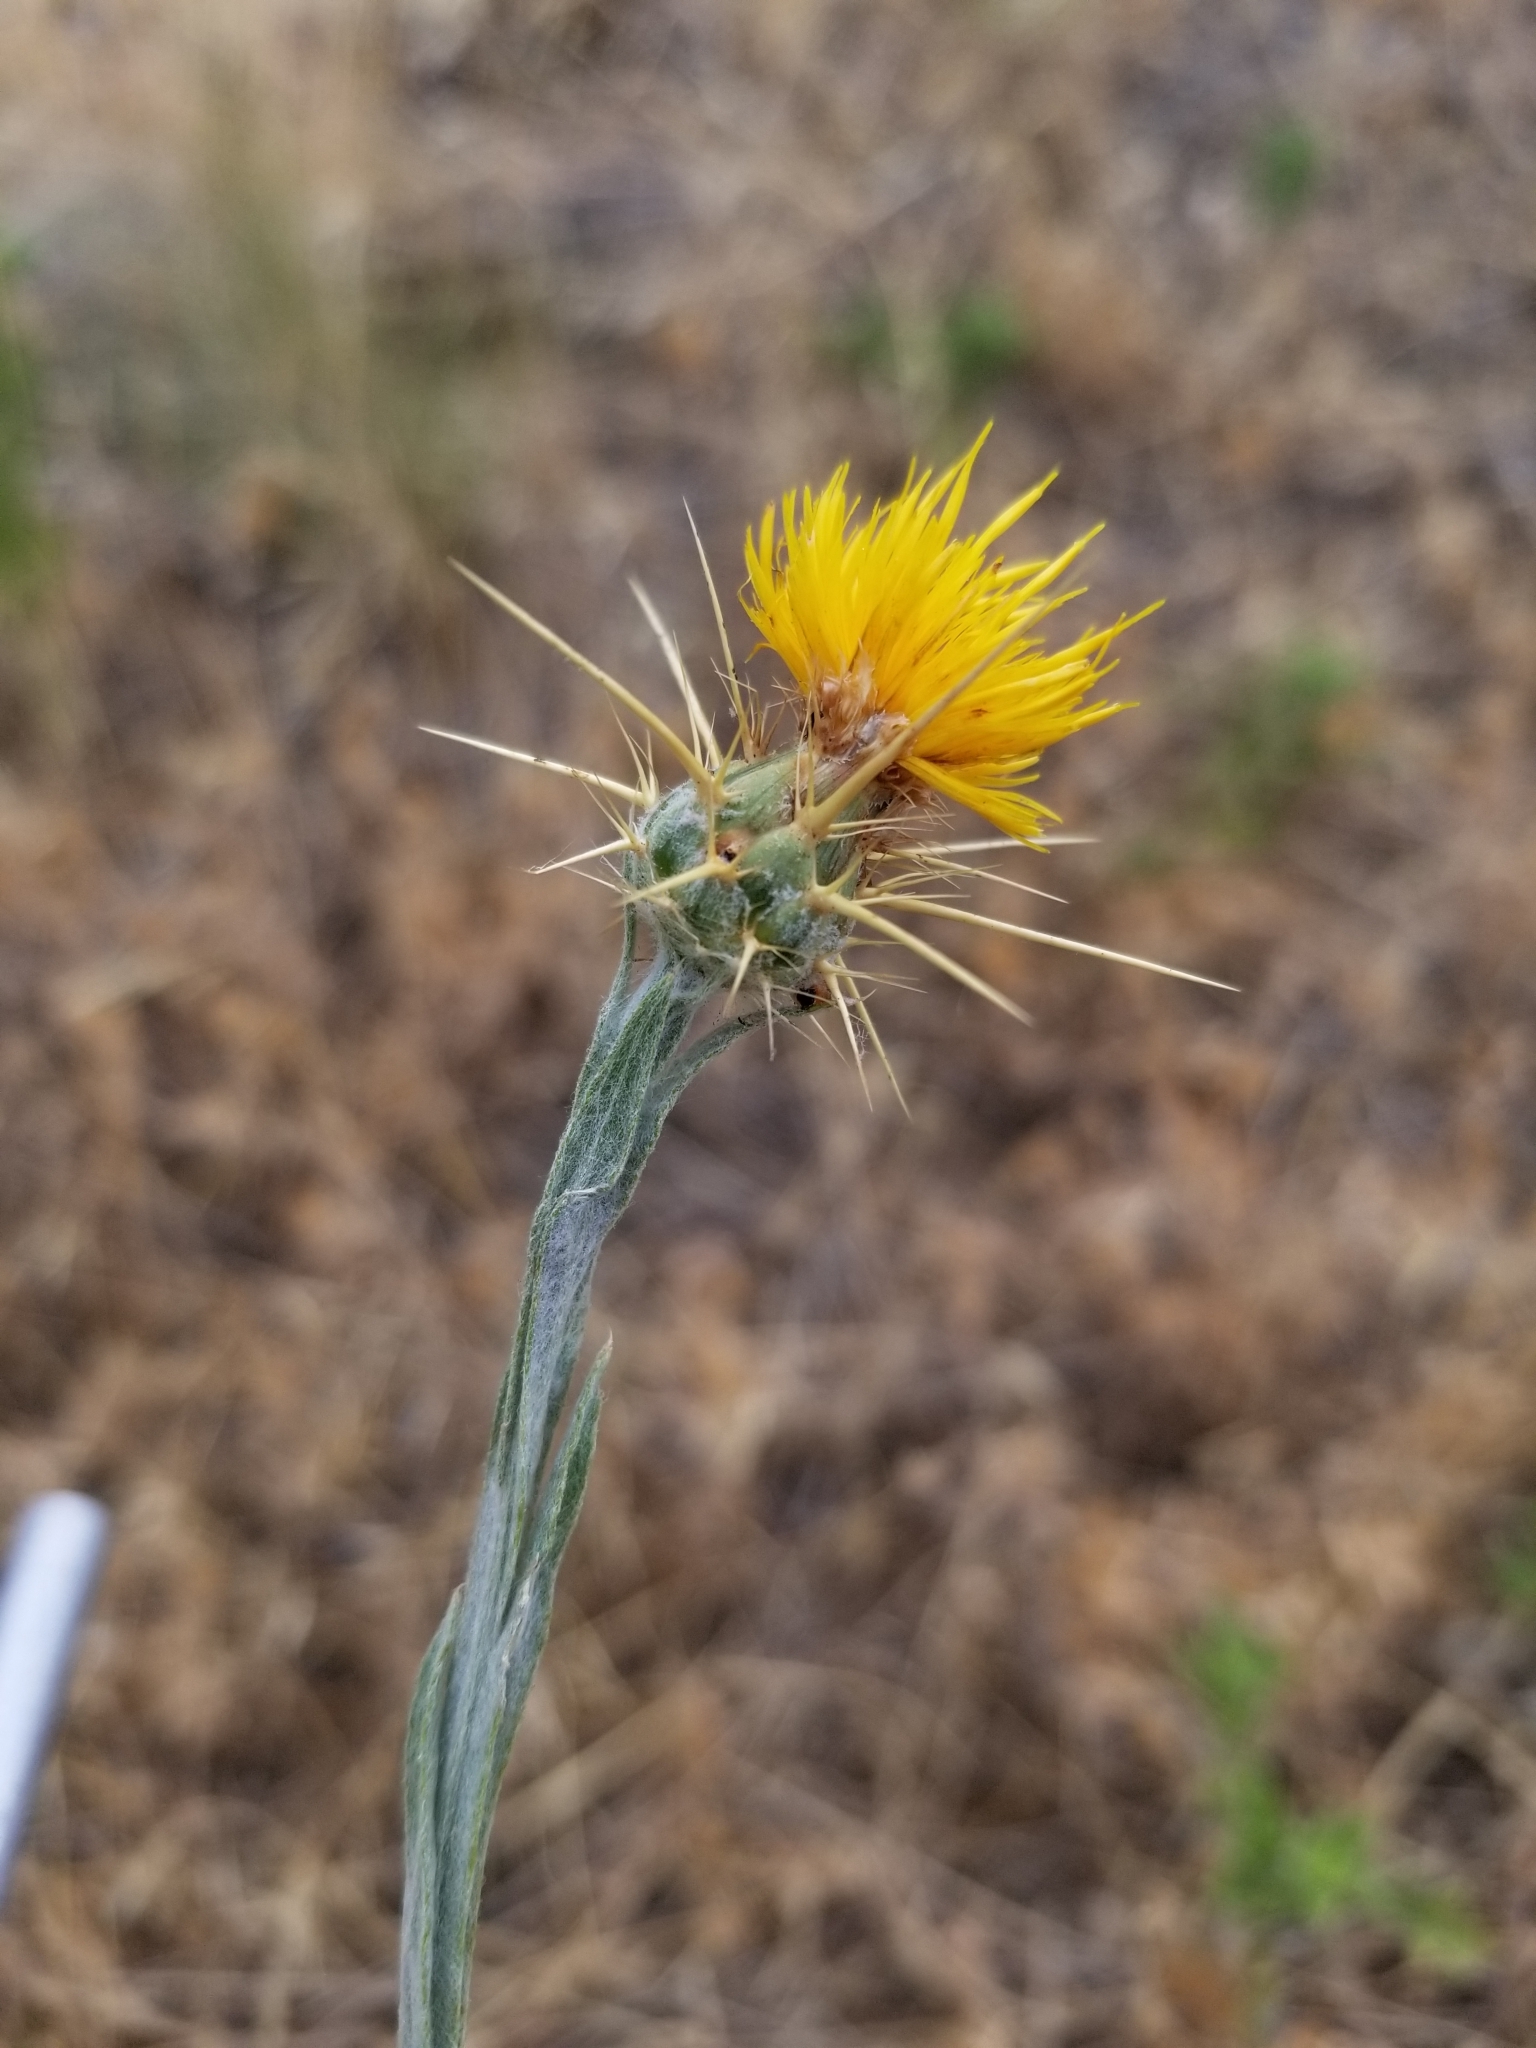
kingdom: Plantae
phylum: Tracheophyta
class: Magnoliopsida
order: Asterales
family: Asteraceae
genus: Centaurea
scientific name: Centaurea solstitialis
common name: Yellow star-thistle
